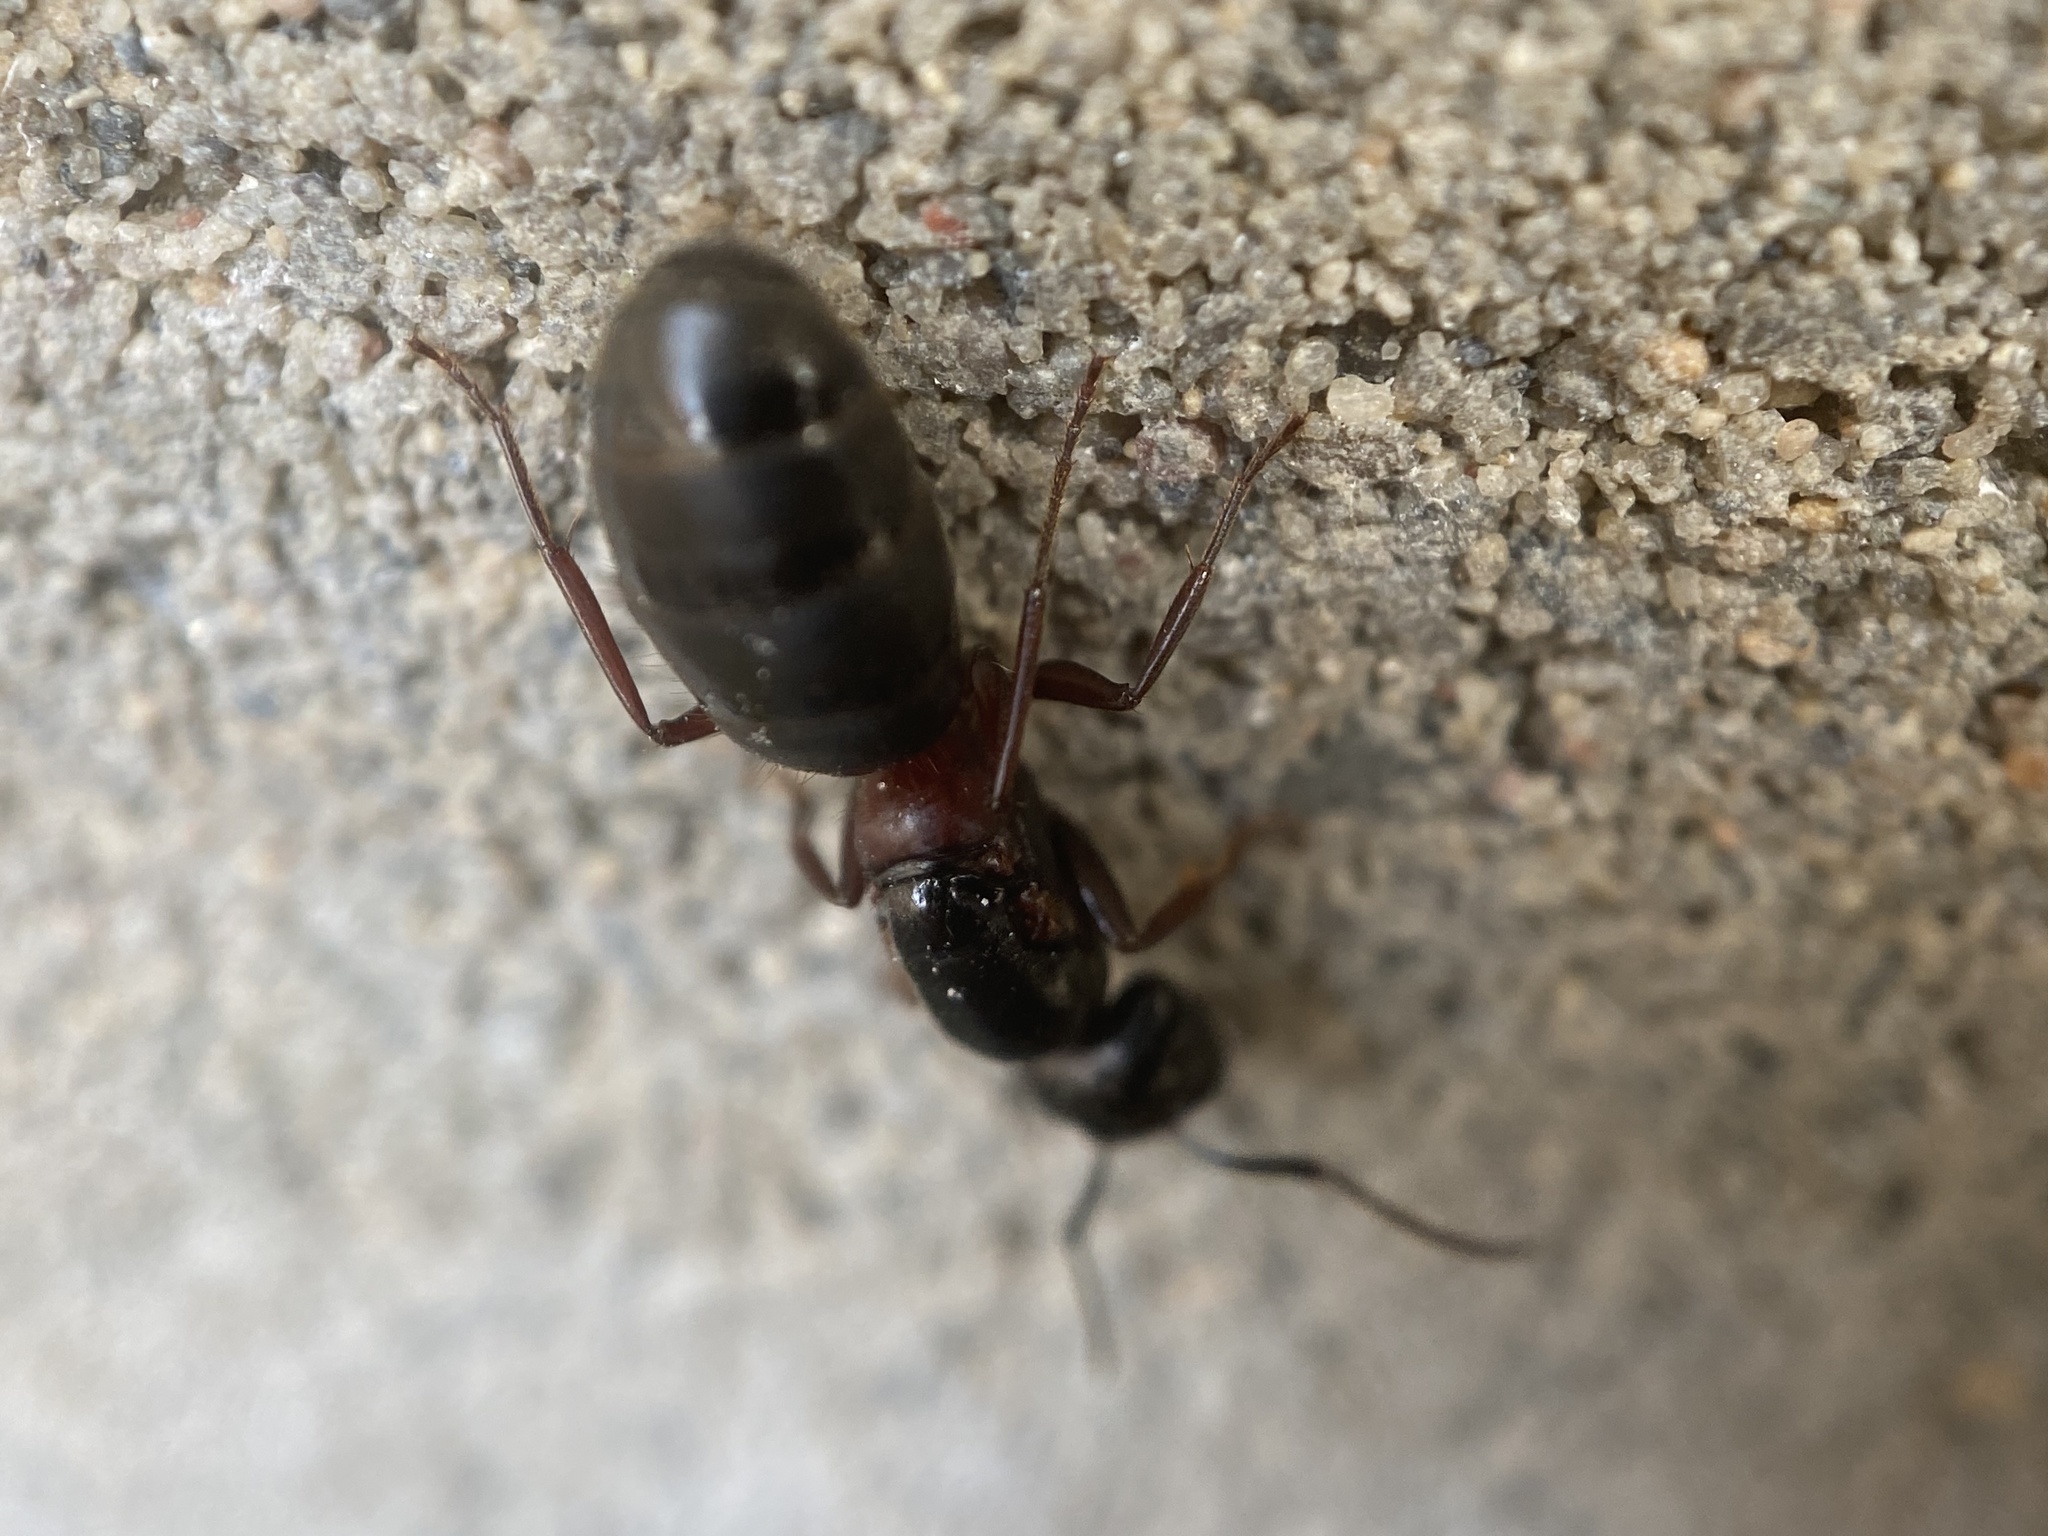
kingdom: Animalia
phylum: Arthropoda
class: Insecta
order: Hymenoptera
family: Formicidae
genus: Camponotus
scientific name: Camponotus herculeanus
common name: Hercules ant
